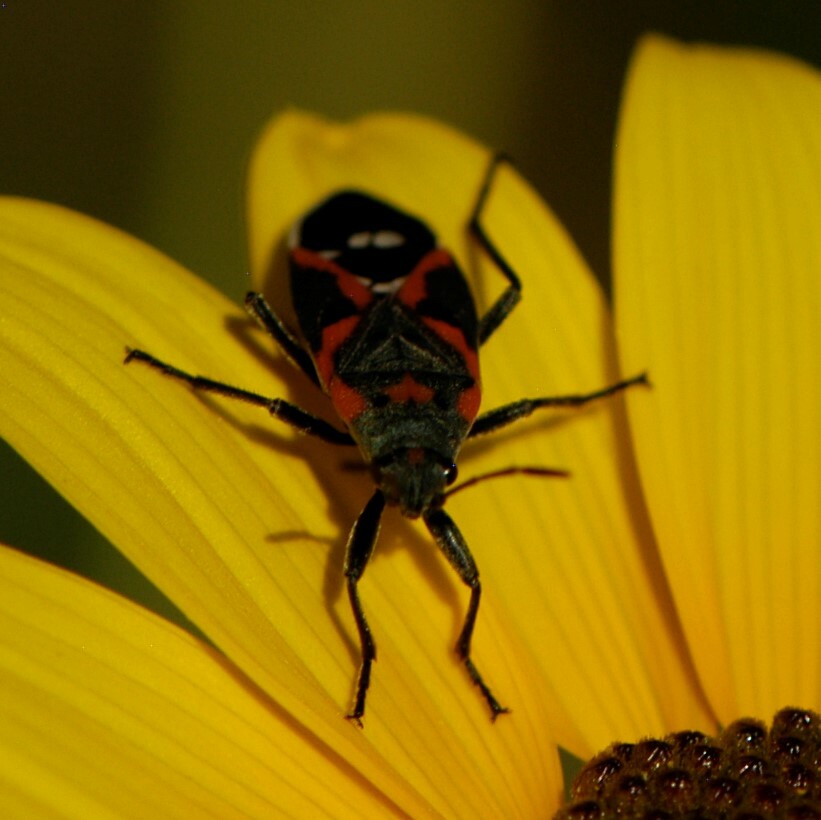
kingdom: Animalia
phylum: Arthropoda
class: Insecta
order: Hemiptera
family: Lygaeidae
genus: Lygaeus
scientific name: Lygaeus kalmii
